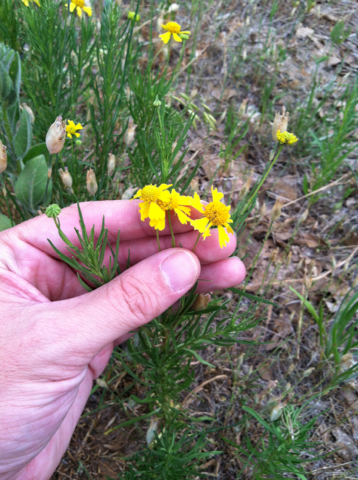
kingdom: Plantae
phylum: Tracheophyta
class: Magnoliopsida
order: Asterales
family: Asteraceae
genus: Helenium
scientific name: Helenium amarum
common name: Bitter sneezeweed
